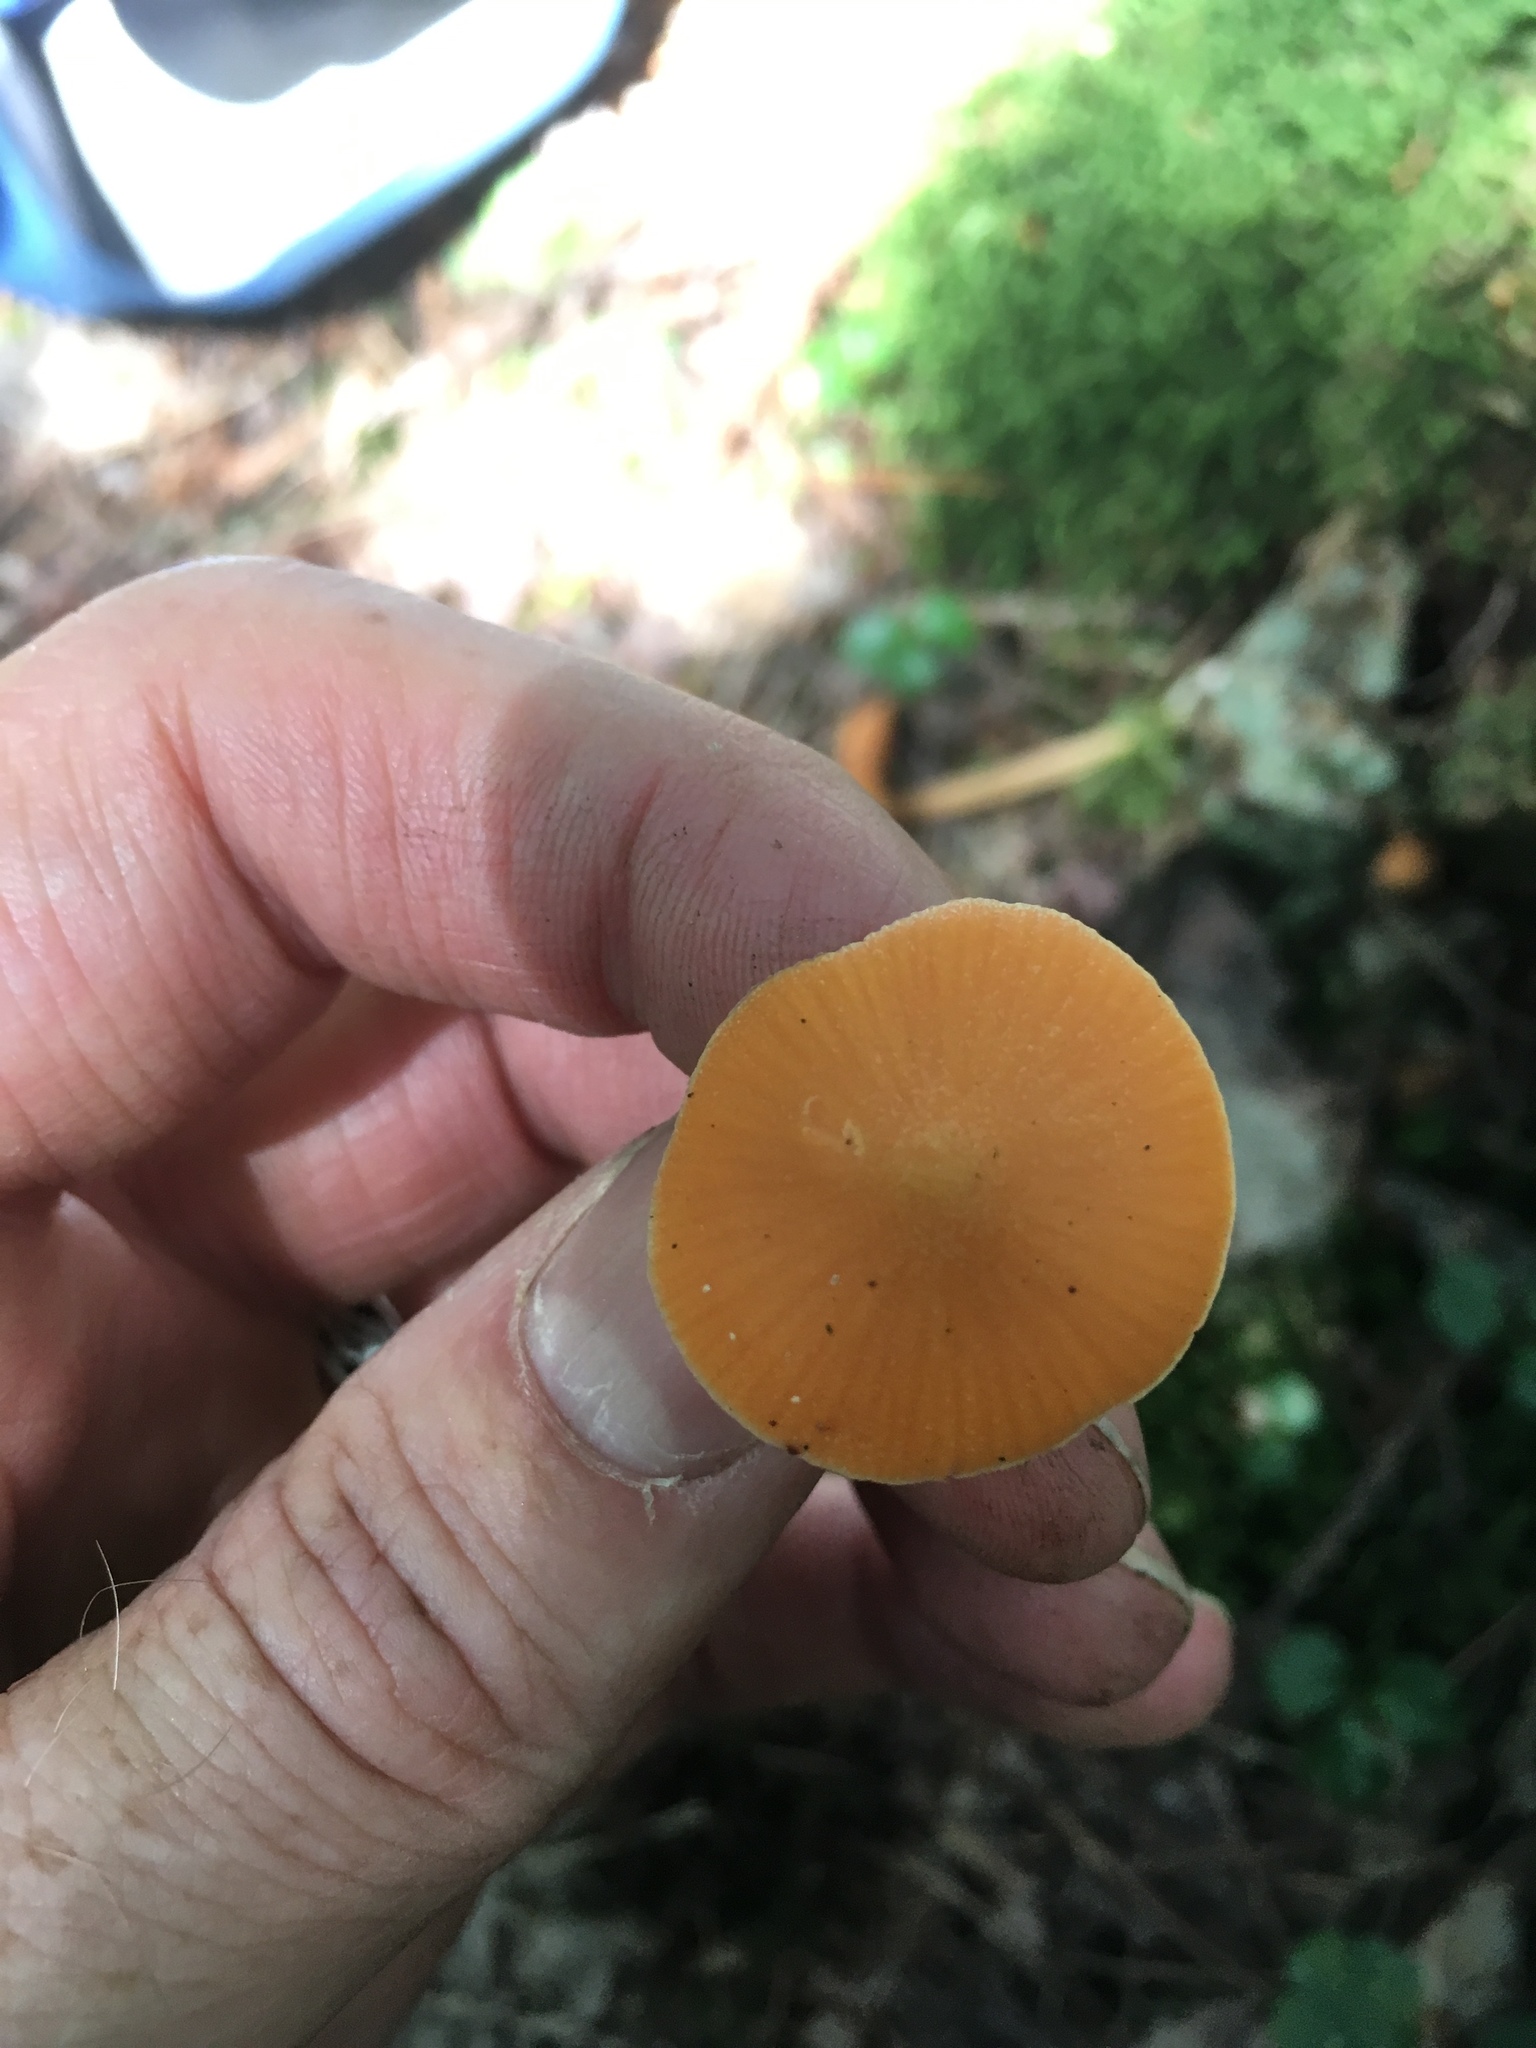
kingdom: Fungi
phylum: Basidiomycota
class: Agaricomycetes
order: Agaricales
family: Entolomataceae
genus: Entoloma
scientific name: Entoloma quadratum
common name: Salmon pinkgill
